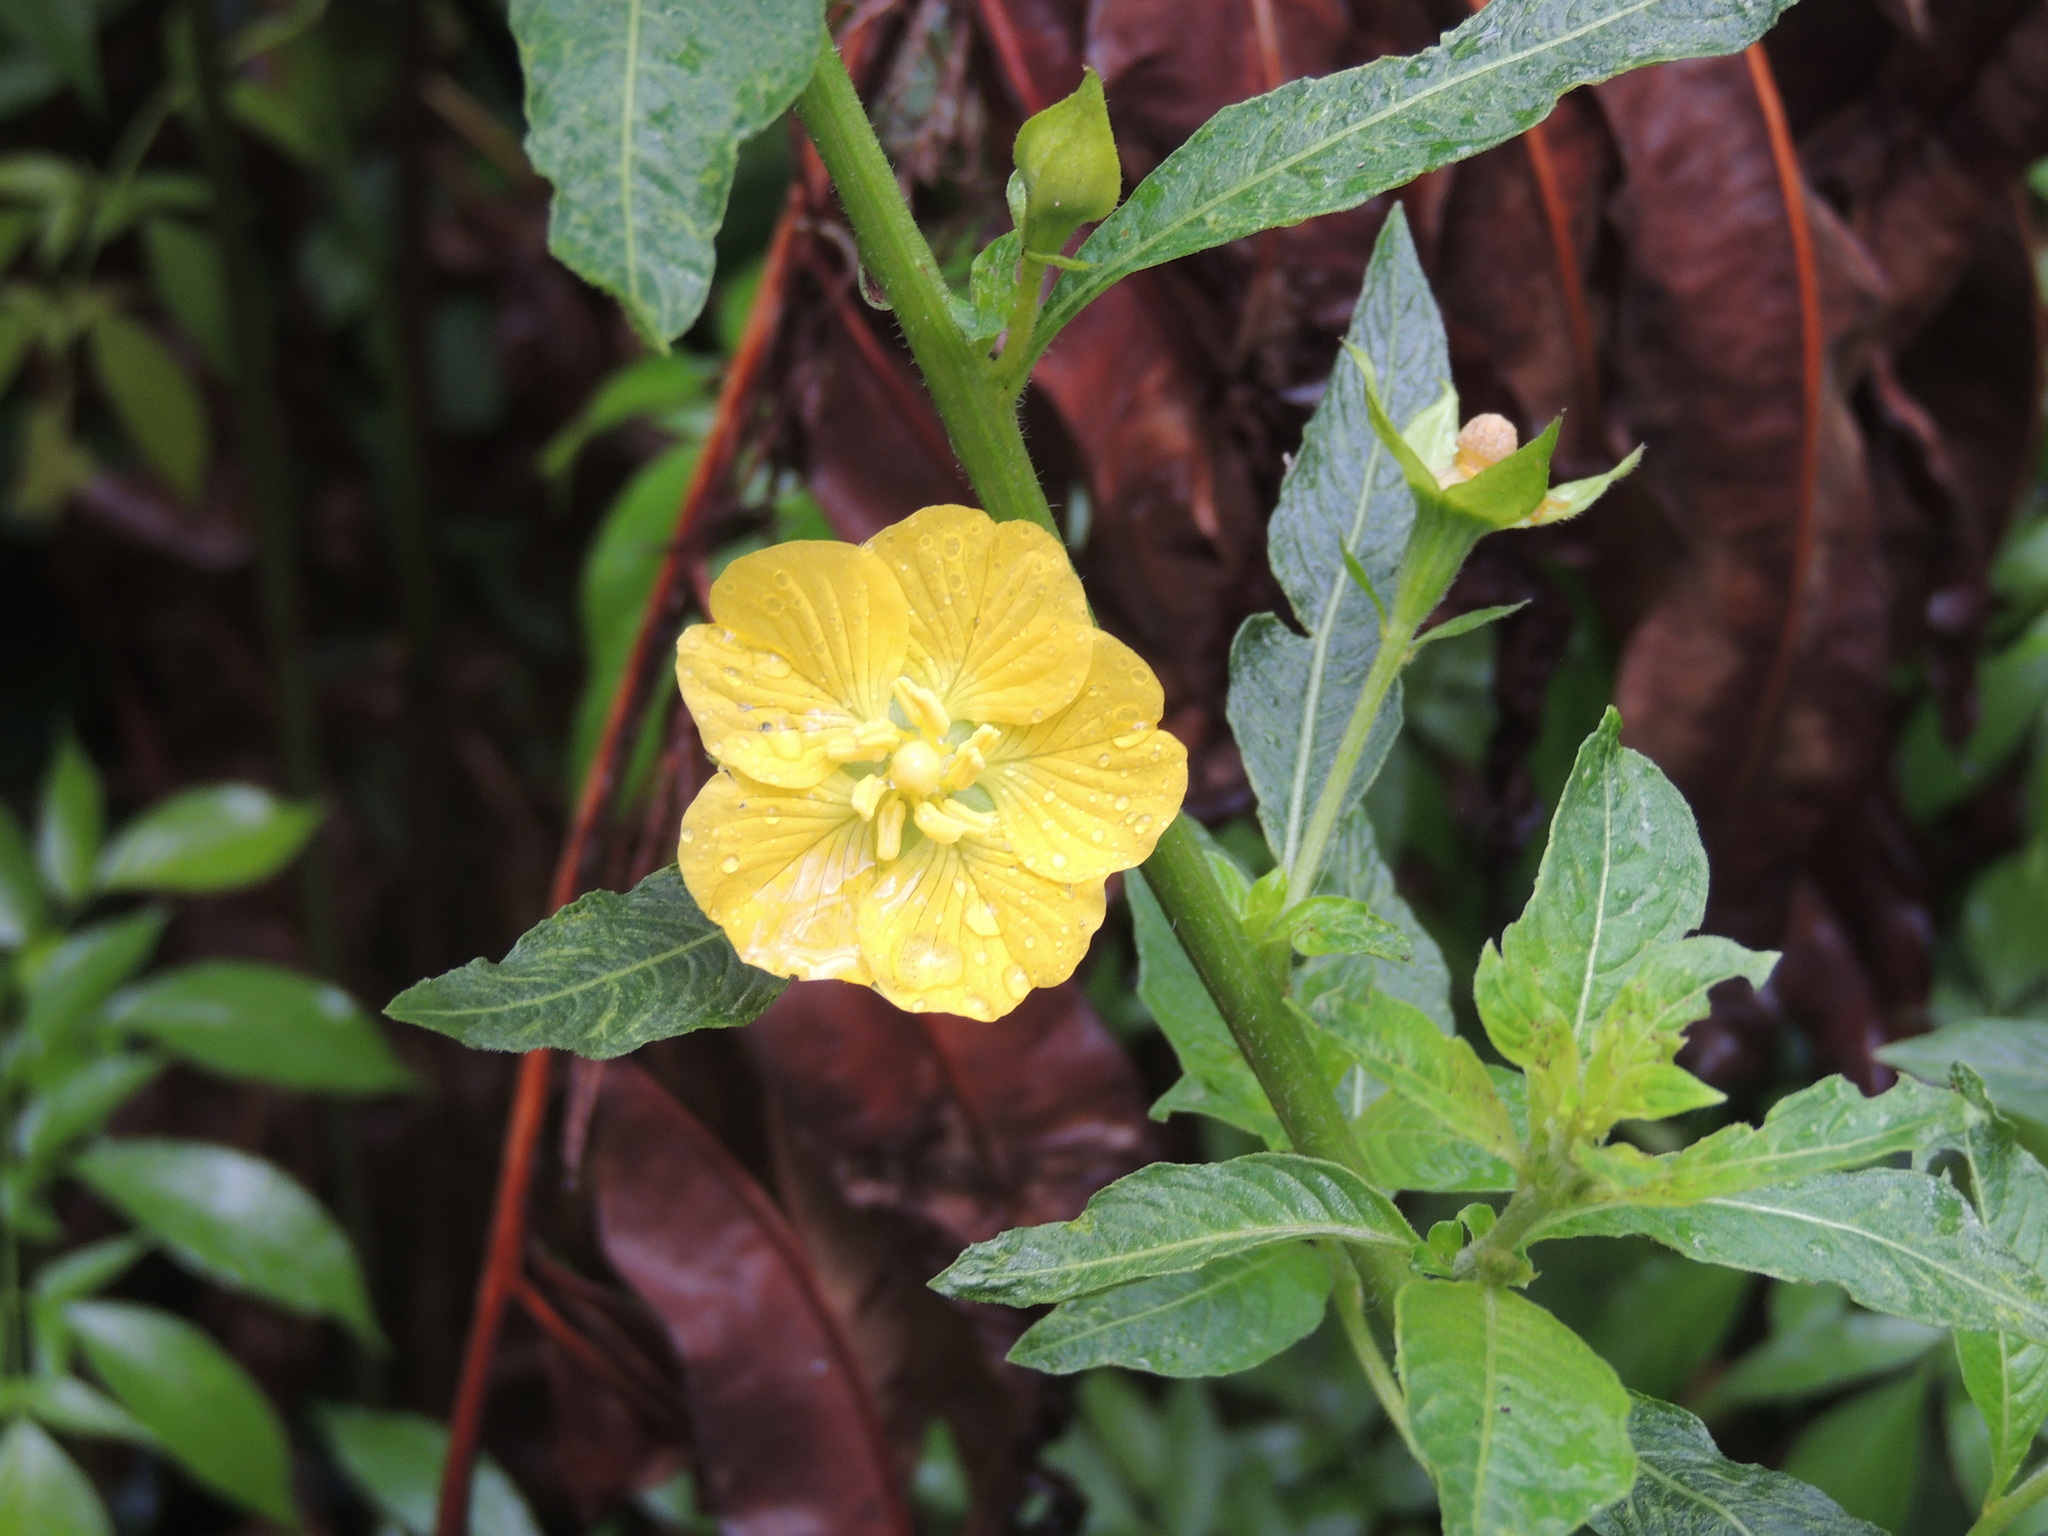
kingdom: Plantae
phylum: Tracheophyta
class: Magnoliopsida
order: Myrtales
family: Onagraceae
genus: Ludwigia
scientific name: Ludwigia peruviana
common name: Peruvian primrose-willow
